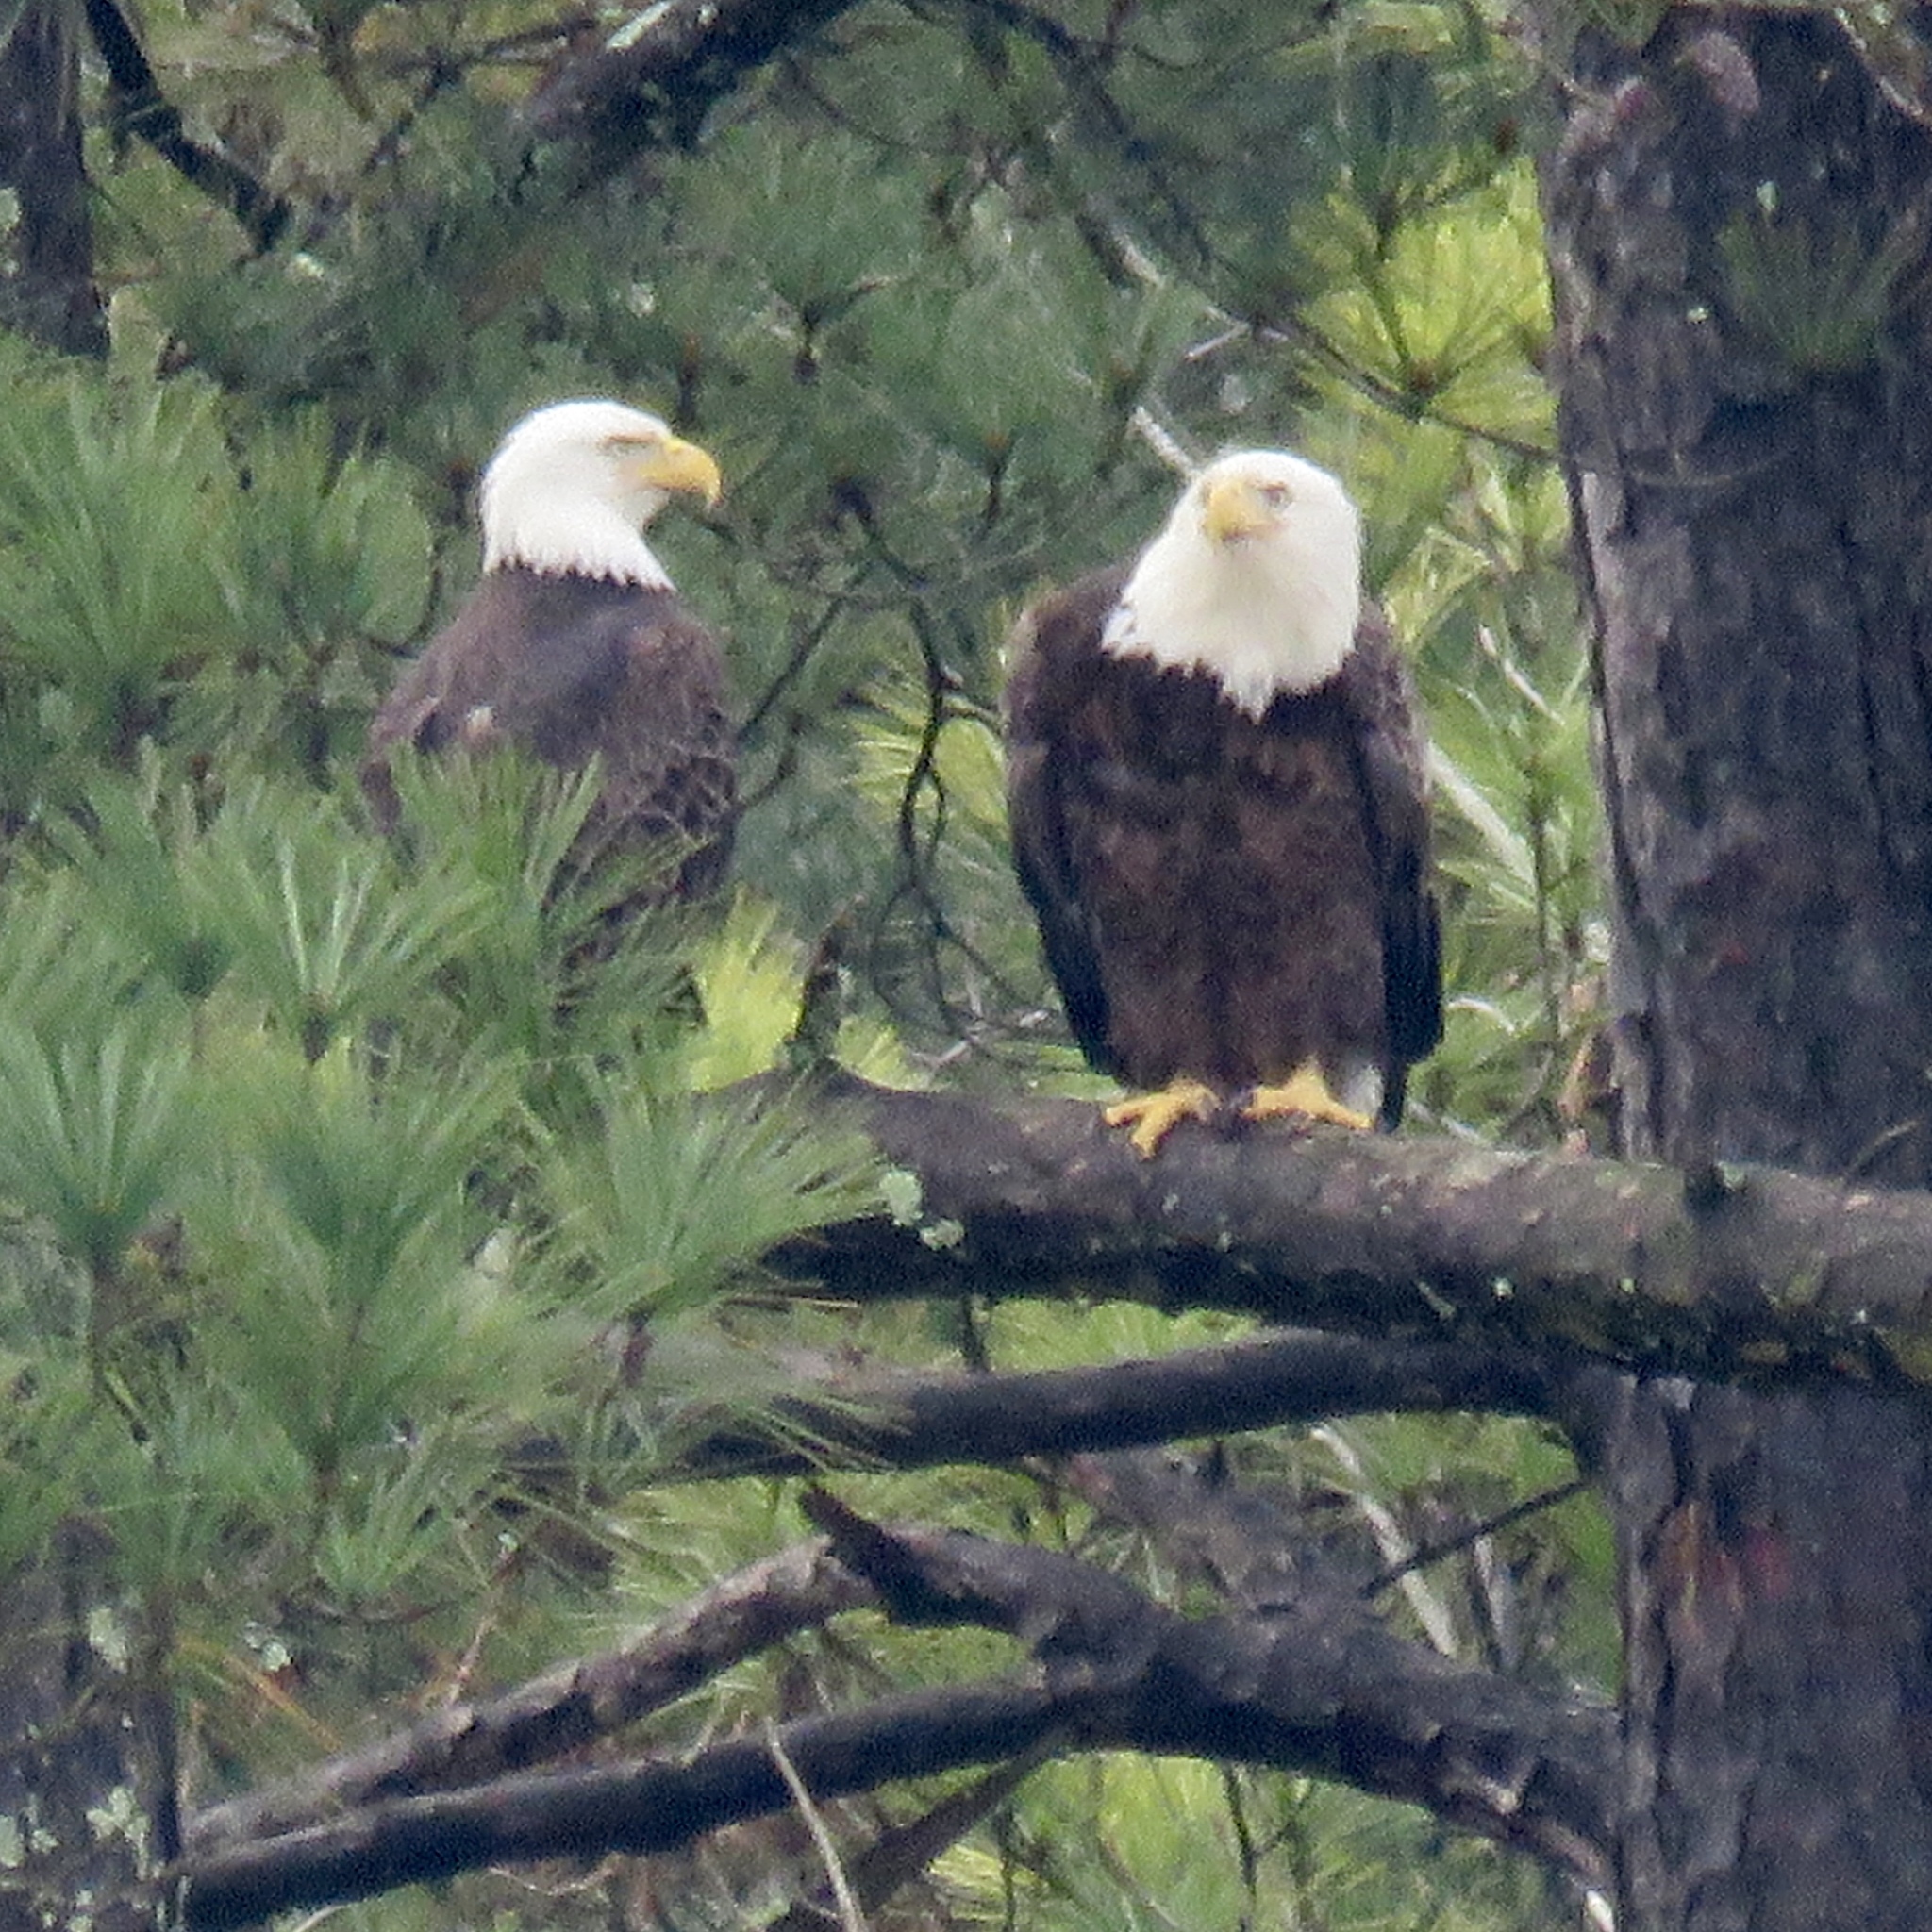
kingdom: Animalia
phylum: Chordata
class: Aves
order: Accipitriformes
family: Accipitridae
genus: Haliaeetus
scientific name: Haliaeetus leucocephalus
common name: Bald eagle
